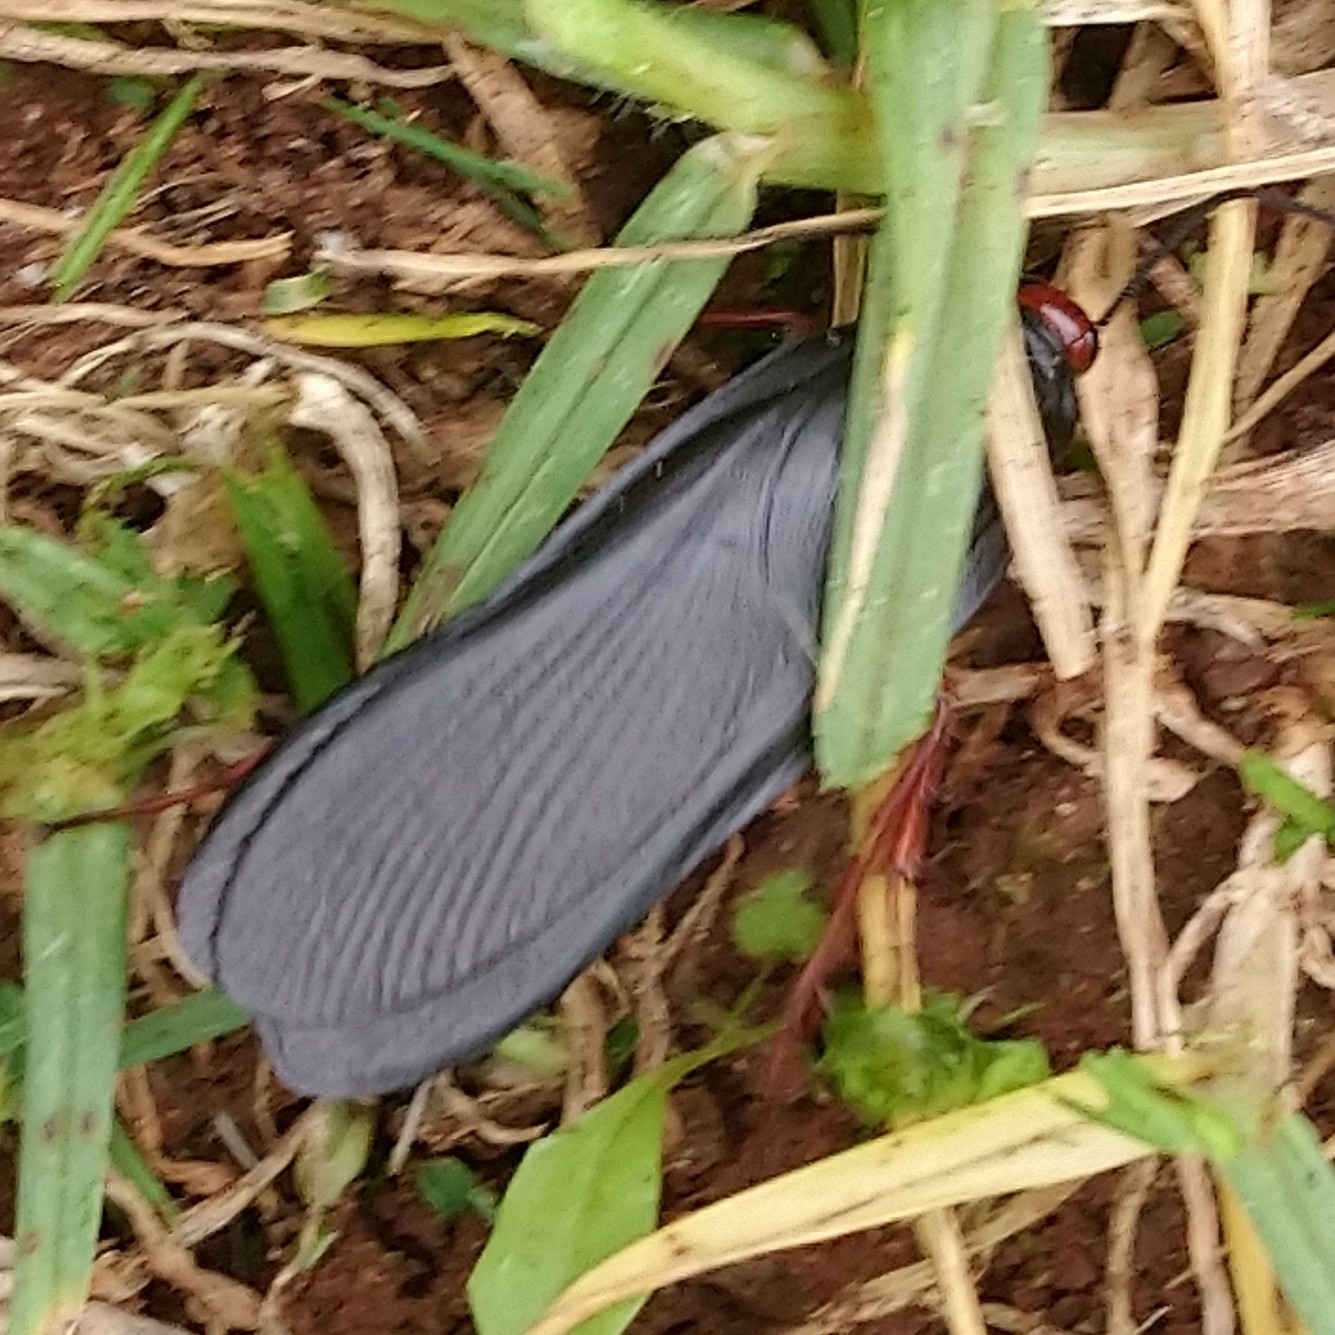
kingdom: Animalia
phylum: Arthropoda
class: Insecta
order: Blattodea
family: Blattidae
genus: Deropeltis
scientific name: Deropeltis erythrocephala
